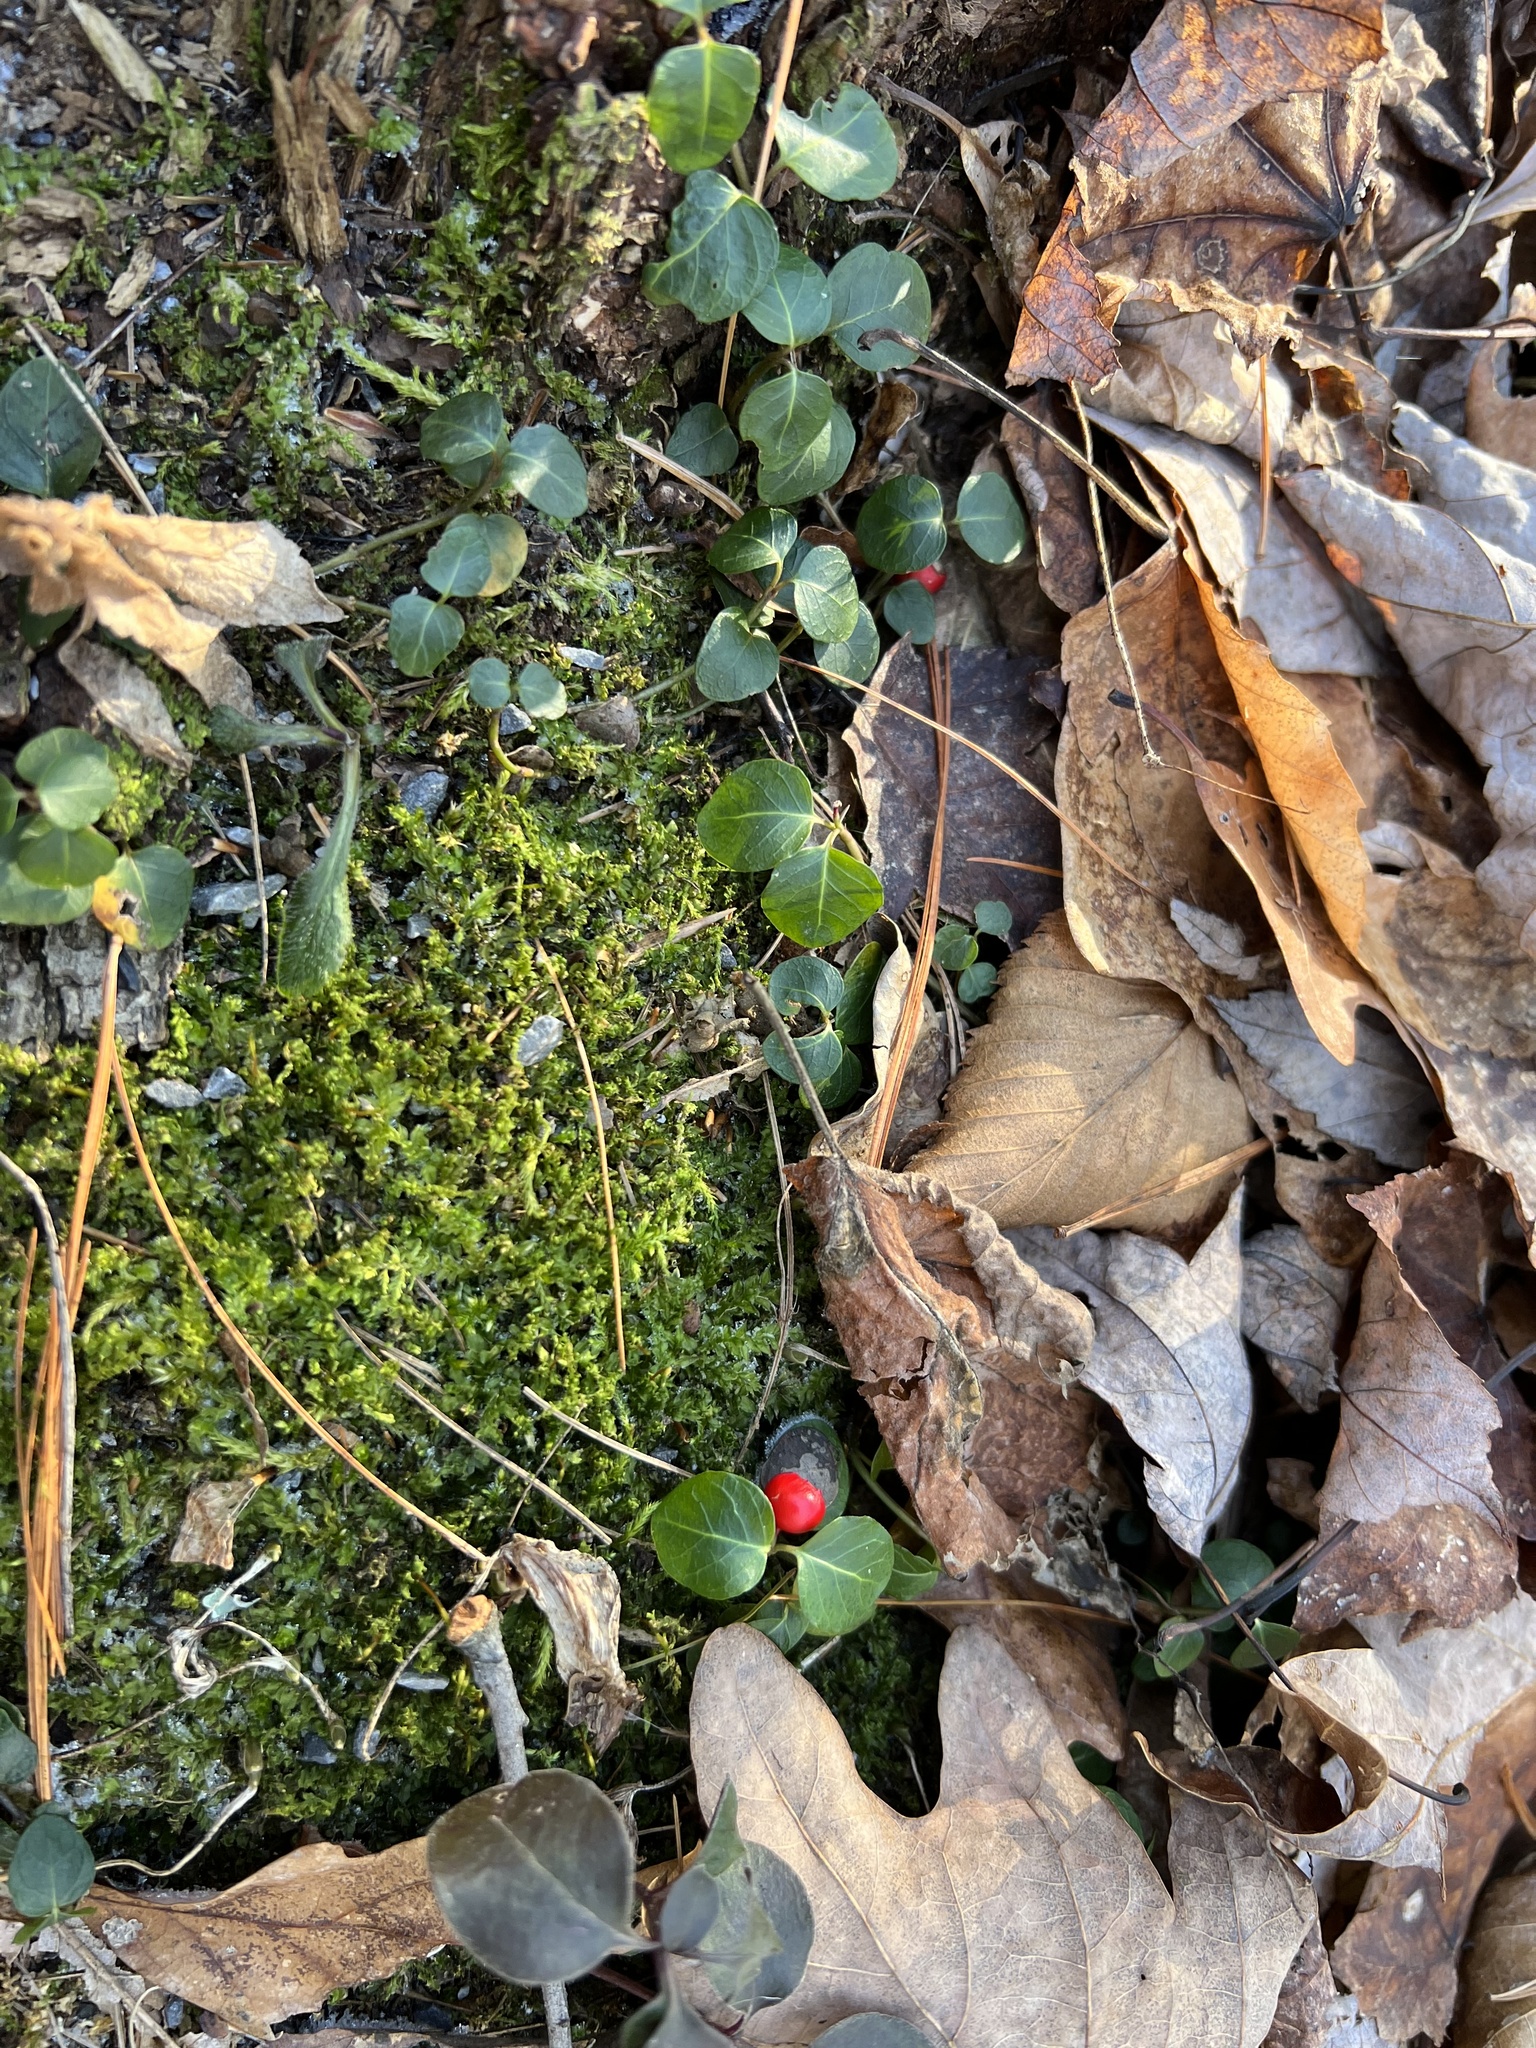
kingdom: Plantae
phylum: Tracheophyta
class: Magnoliopsida
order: Gentianales
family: Rubiaceae
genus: Mitchella
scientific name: Mitchella repens
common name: Partridge-berry
